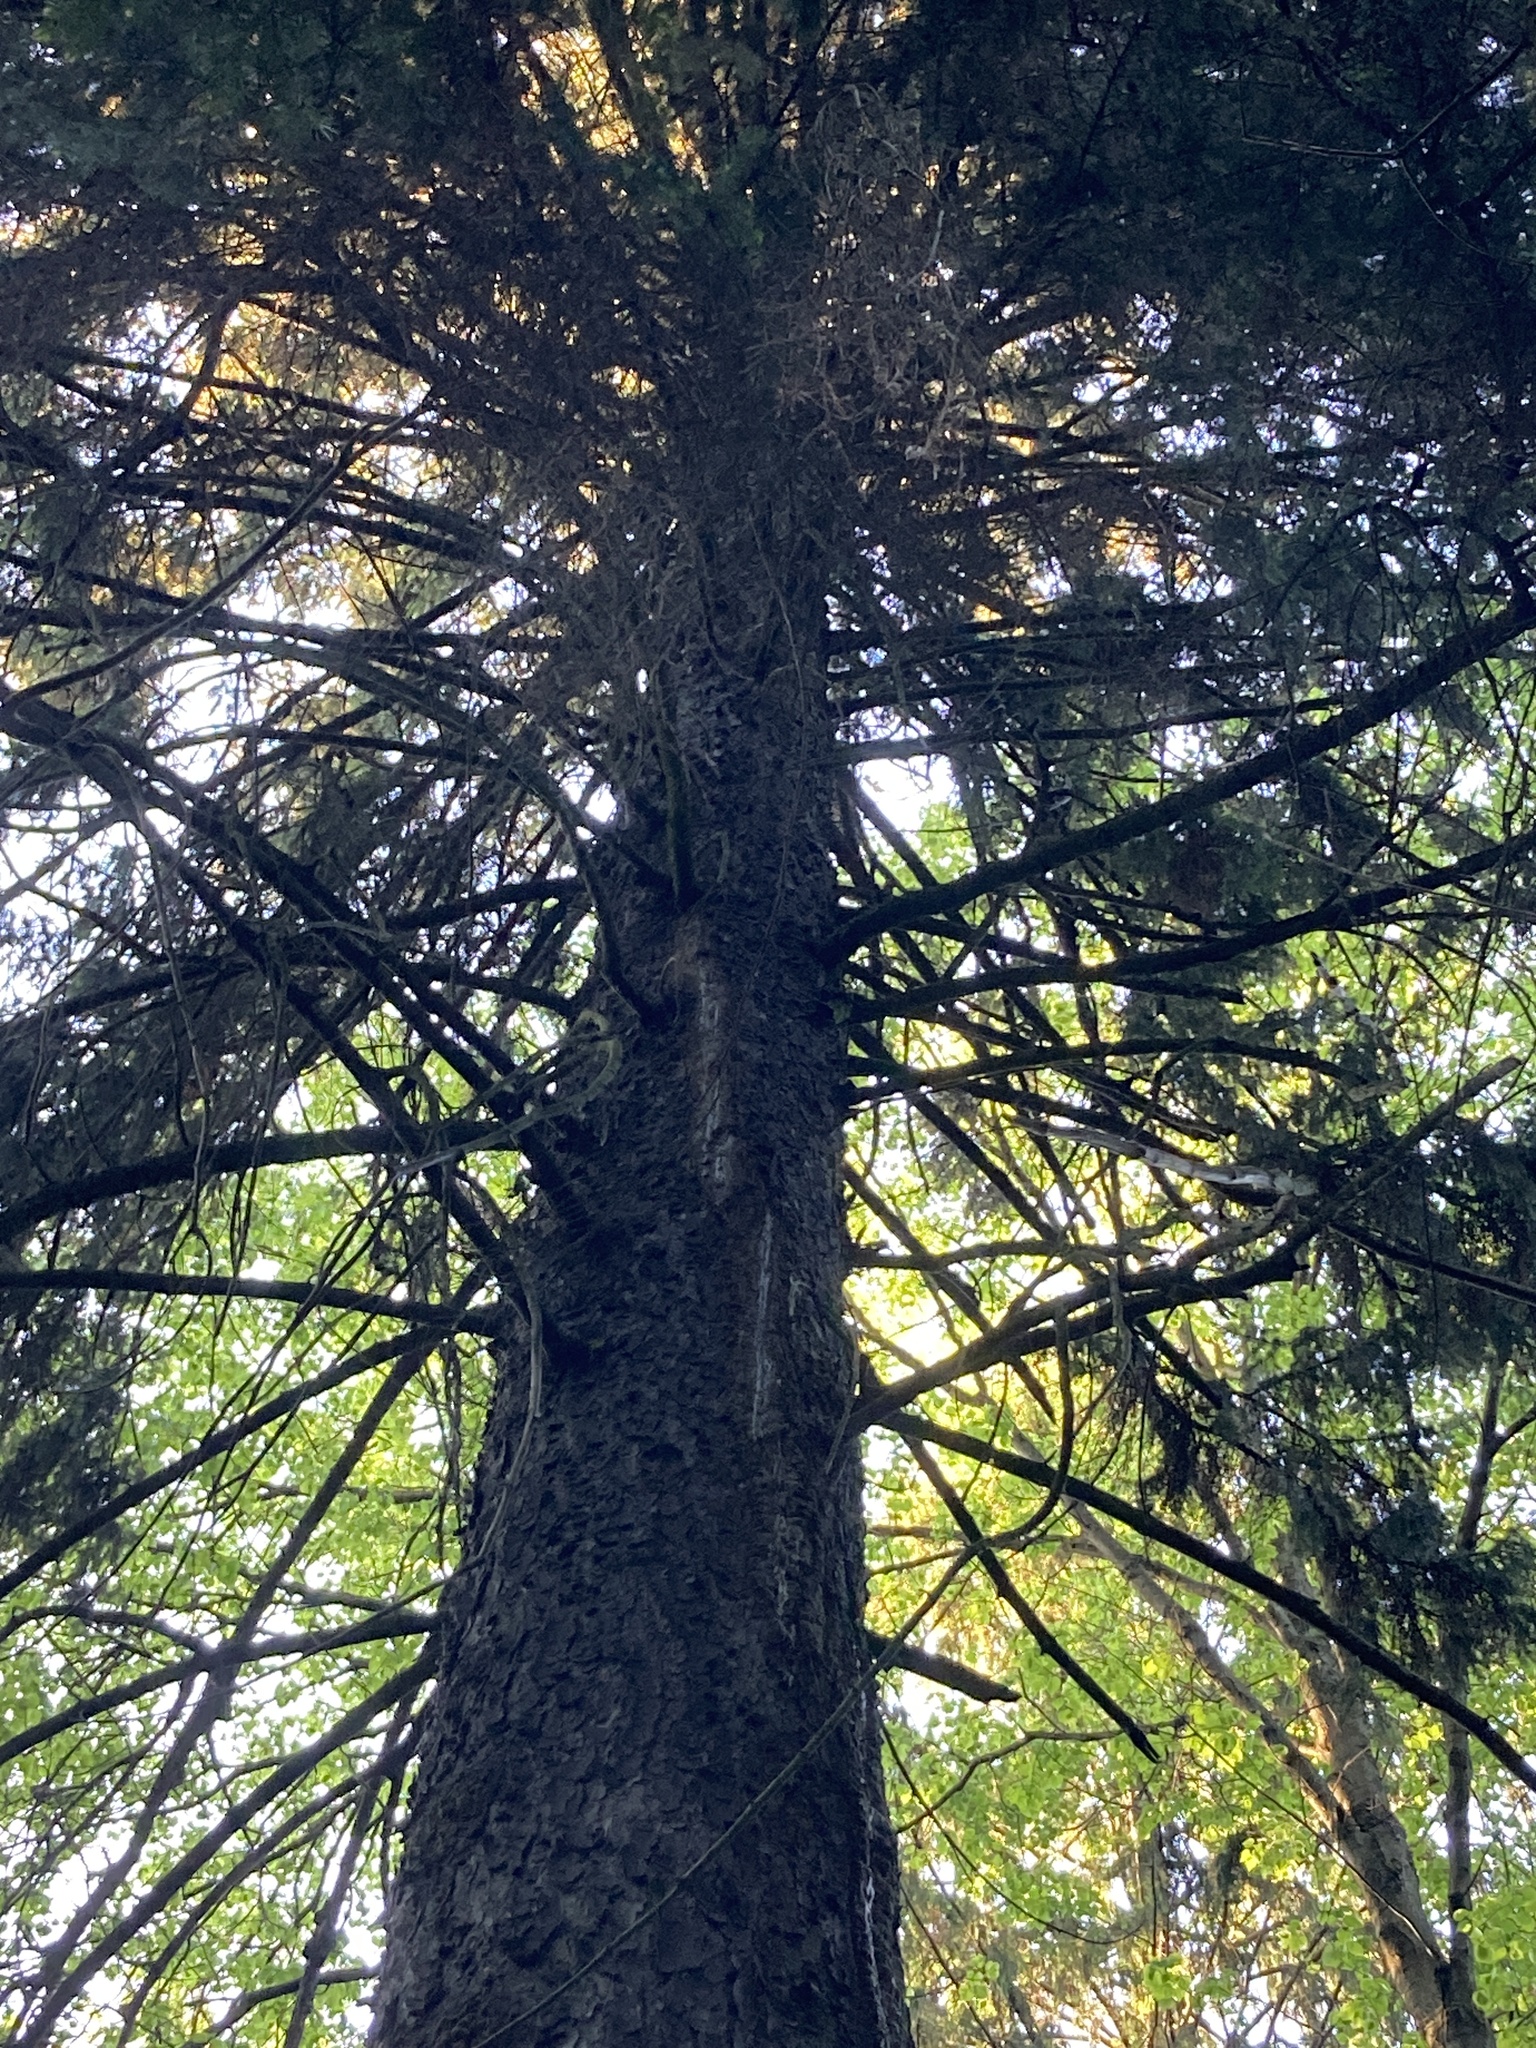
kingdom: Plantae
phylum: Tracheophyta
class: Pinopsida
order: Pinales
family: Pinaceae
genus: Picea
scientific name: Picea abies
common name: Norway spruce
